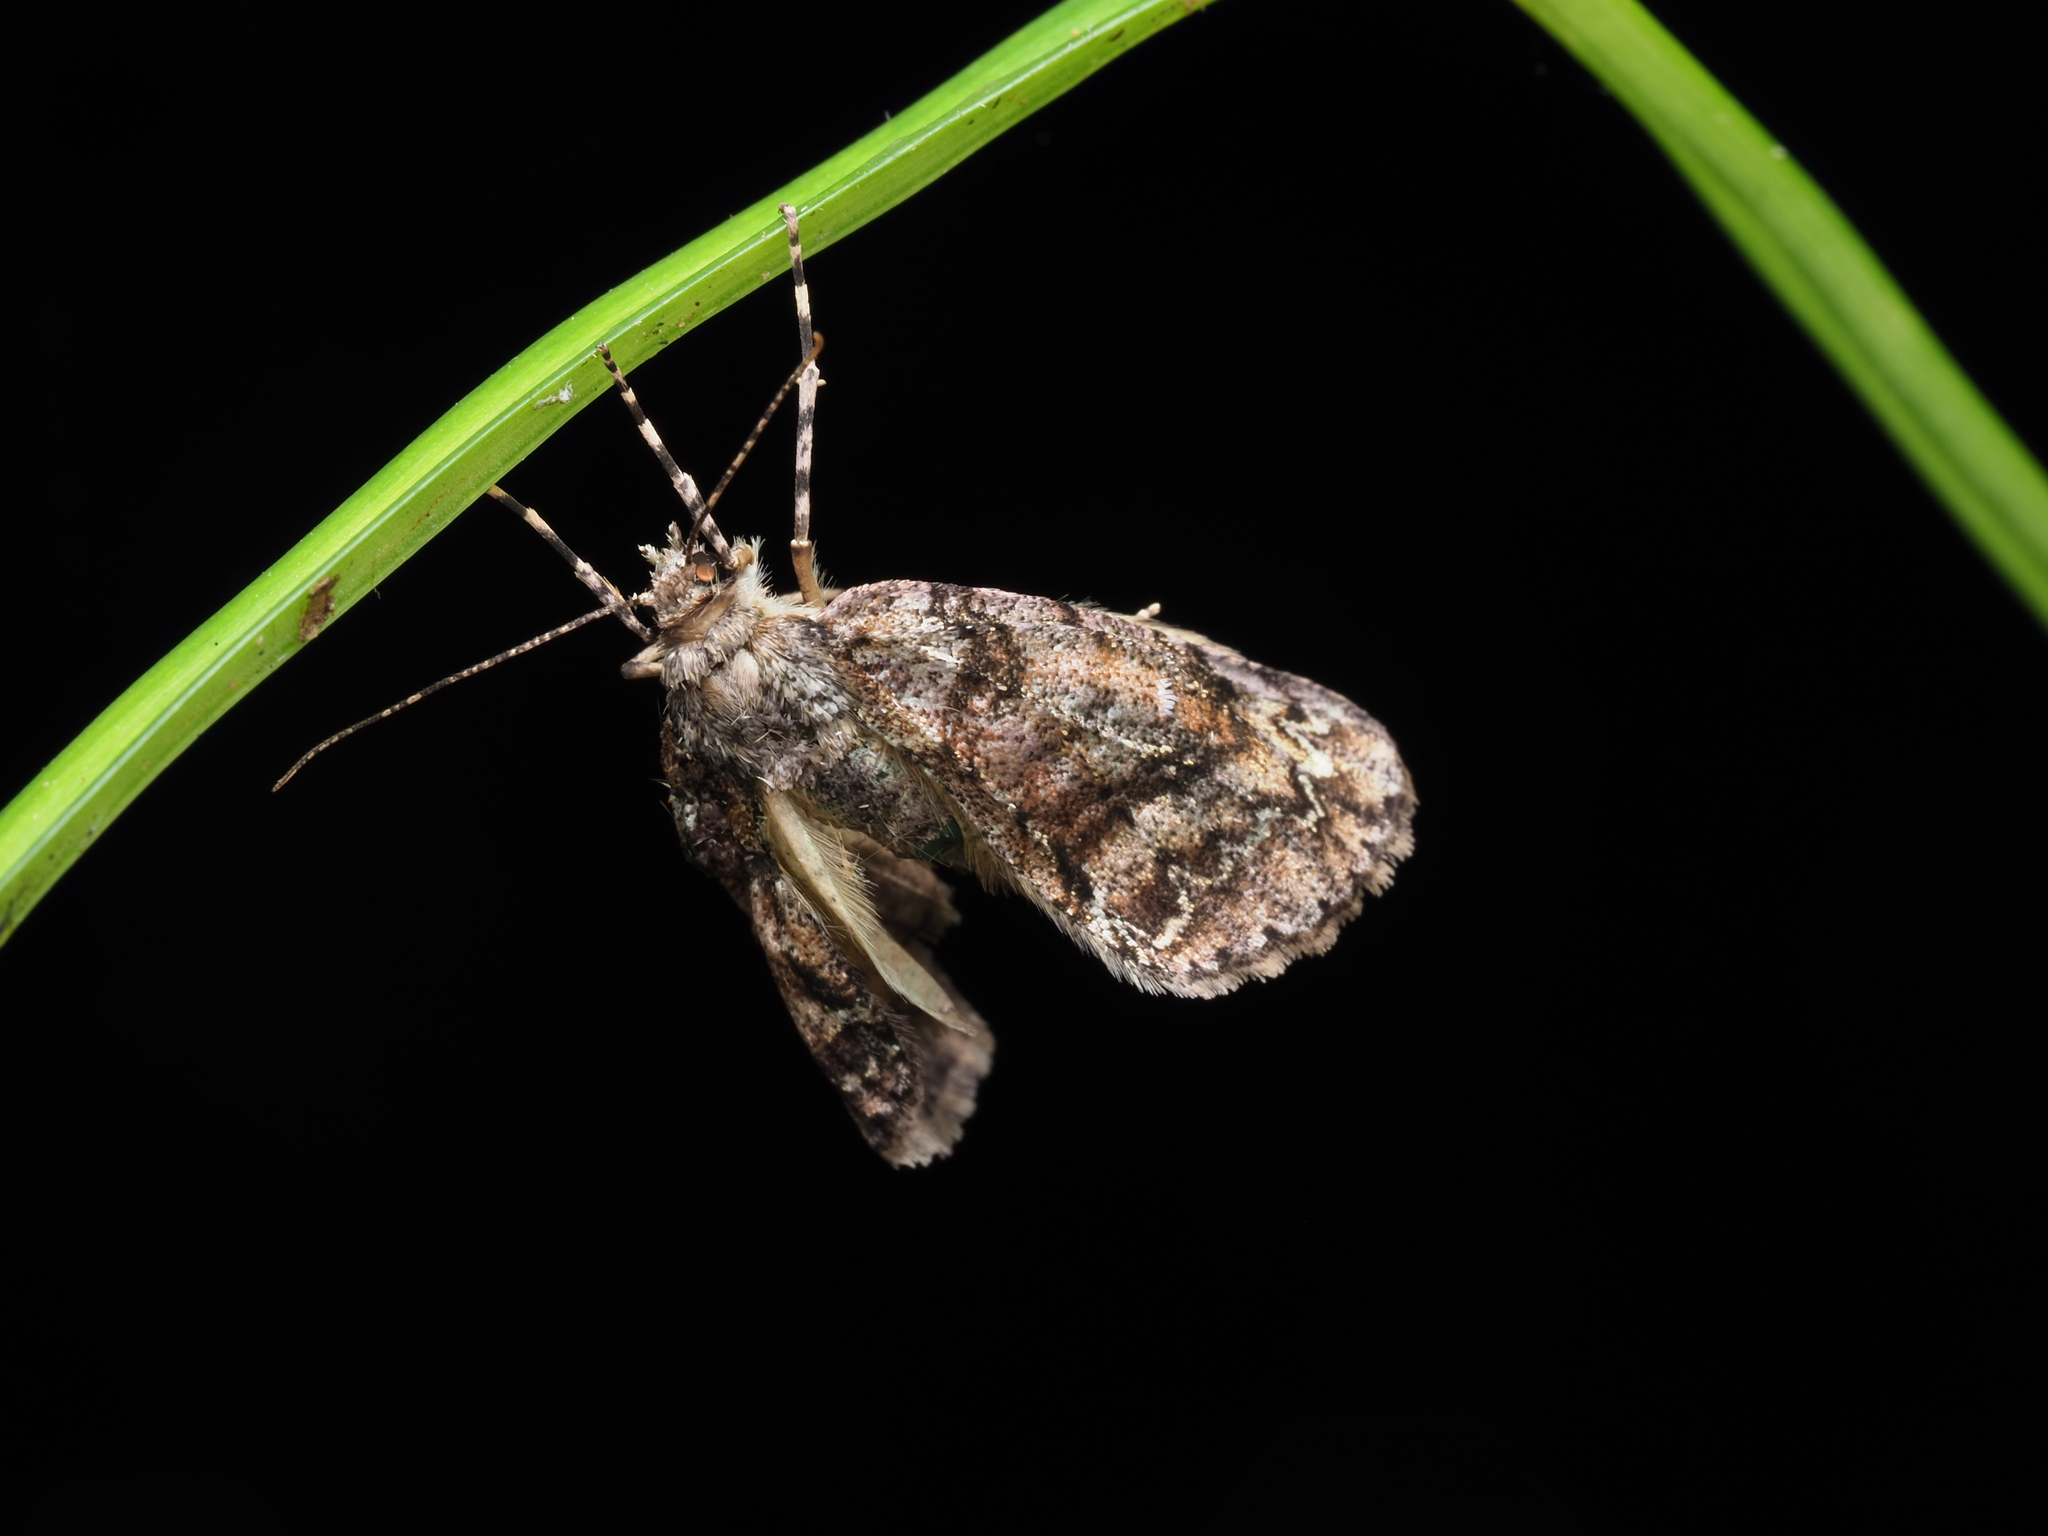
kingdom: Animalia
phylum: Arthropoda
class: Insecta
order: Lepidoptera
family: Geometridae
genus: Pseudocoremia
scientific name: Pseudocoremia suavis
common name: Common forest looper
